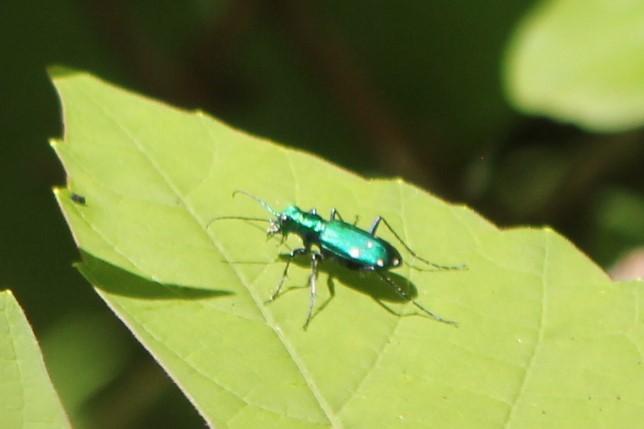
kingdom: Animalia
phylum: Arthropoda
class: Insecta
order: Coleoptera
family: Carabidae
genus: Cicindela
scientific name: Cicindela sexguttata
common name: Six-spotted tiger beetle
